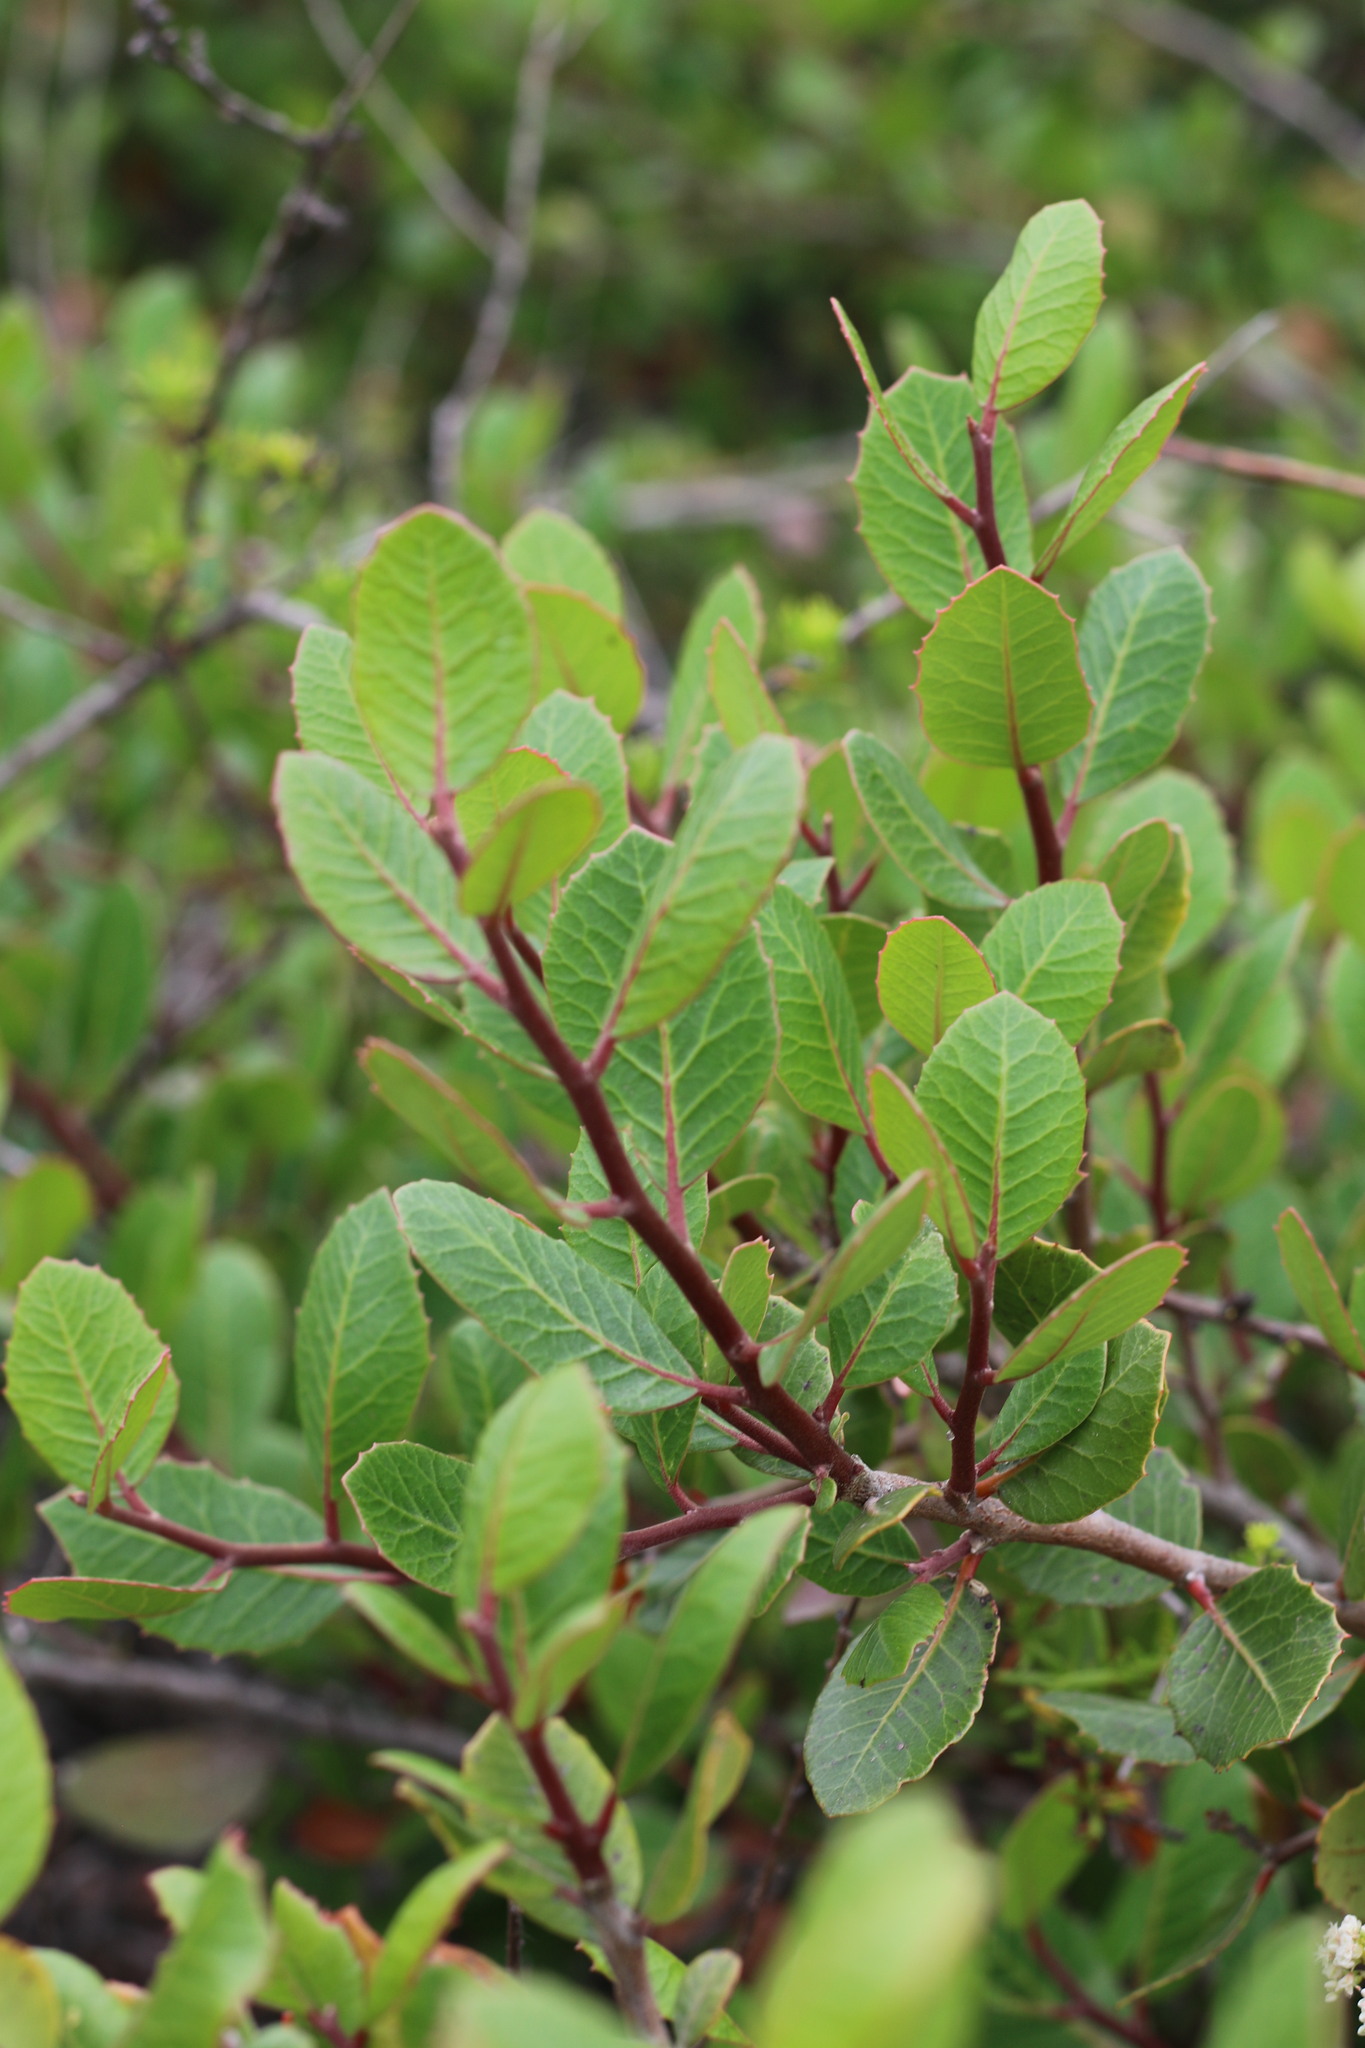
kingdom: Plantae
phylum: Tracheophyta
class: Magnoliopsida
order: Sapindales
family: Anacardiaceae
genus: Rhus
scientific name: Rhus integrifolia
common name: Lemonade sumac
